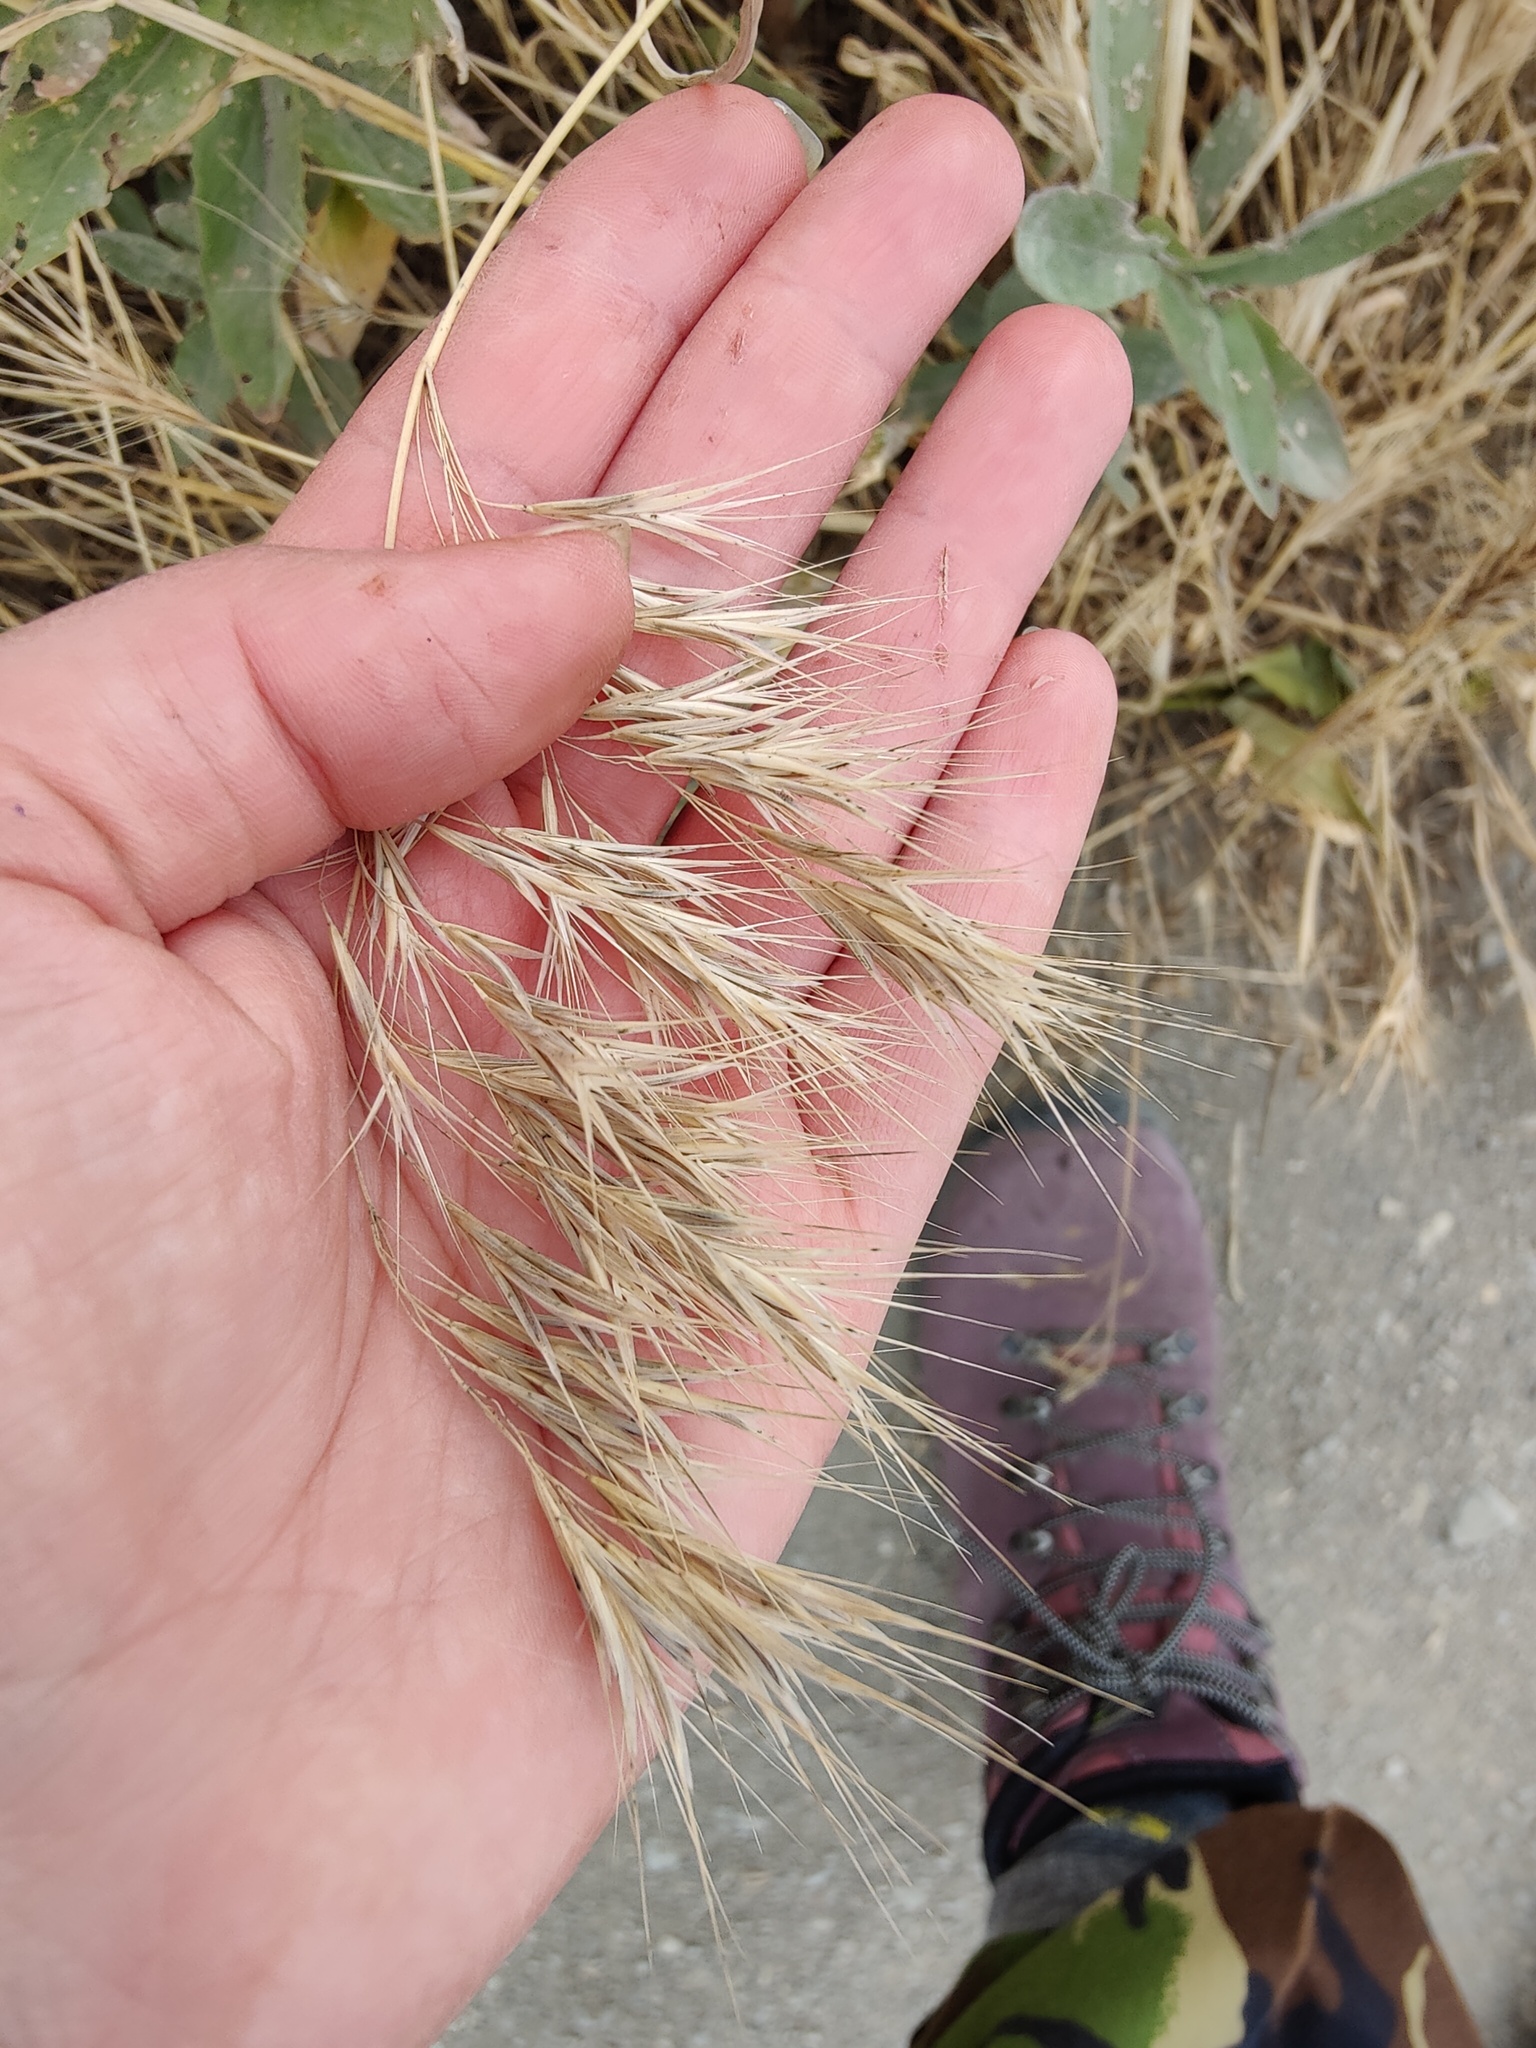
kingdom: Plantae
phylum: Tracheophyta
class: Liliopsida
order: Poales
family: Poaceae
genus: Bromus
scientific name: Bromus tectorum
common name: Cheatgrass
